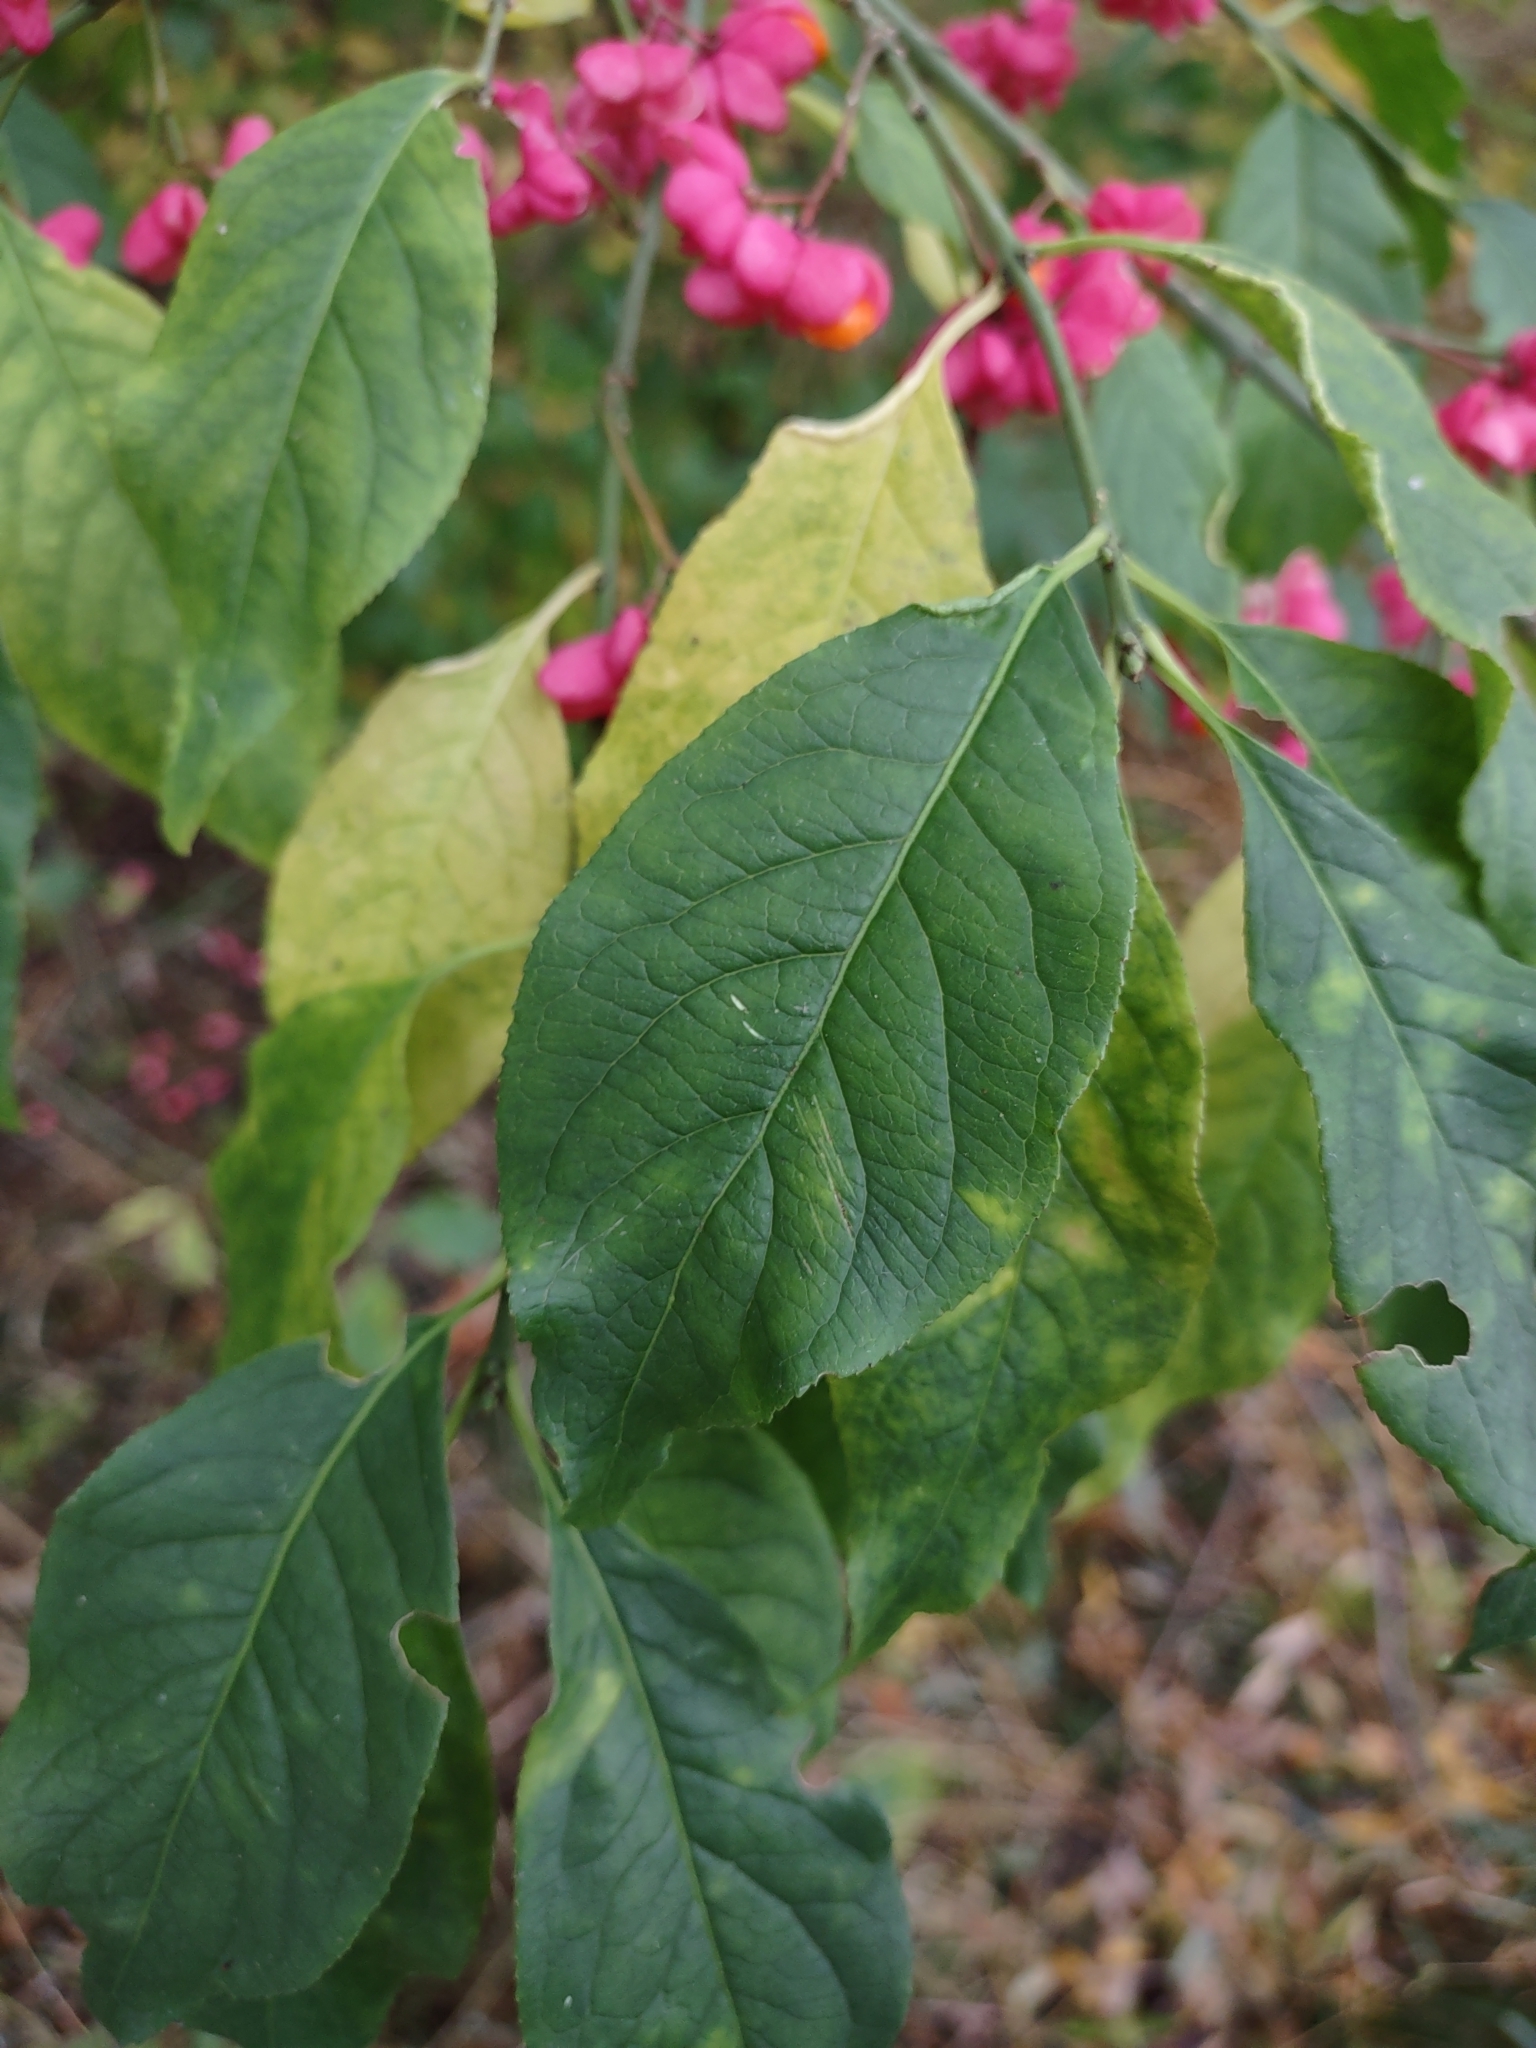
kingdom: Plantae
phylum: Tracheophyta
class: Magnoliopsida
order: Celastrales
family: Celastraceae
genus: Euonymus
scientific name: Euonymus europaeus
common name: Spindle
